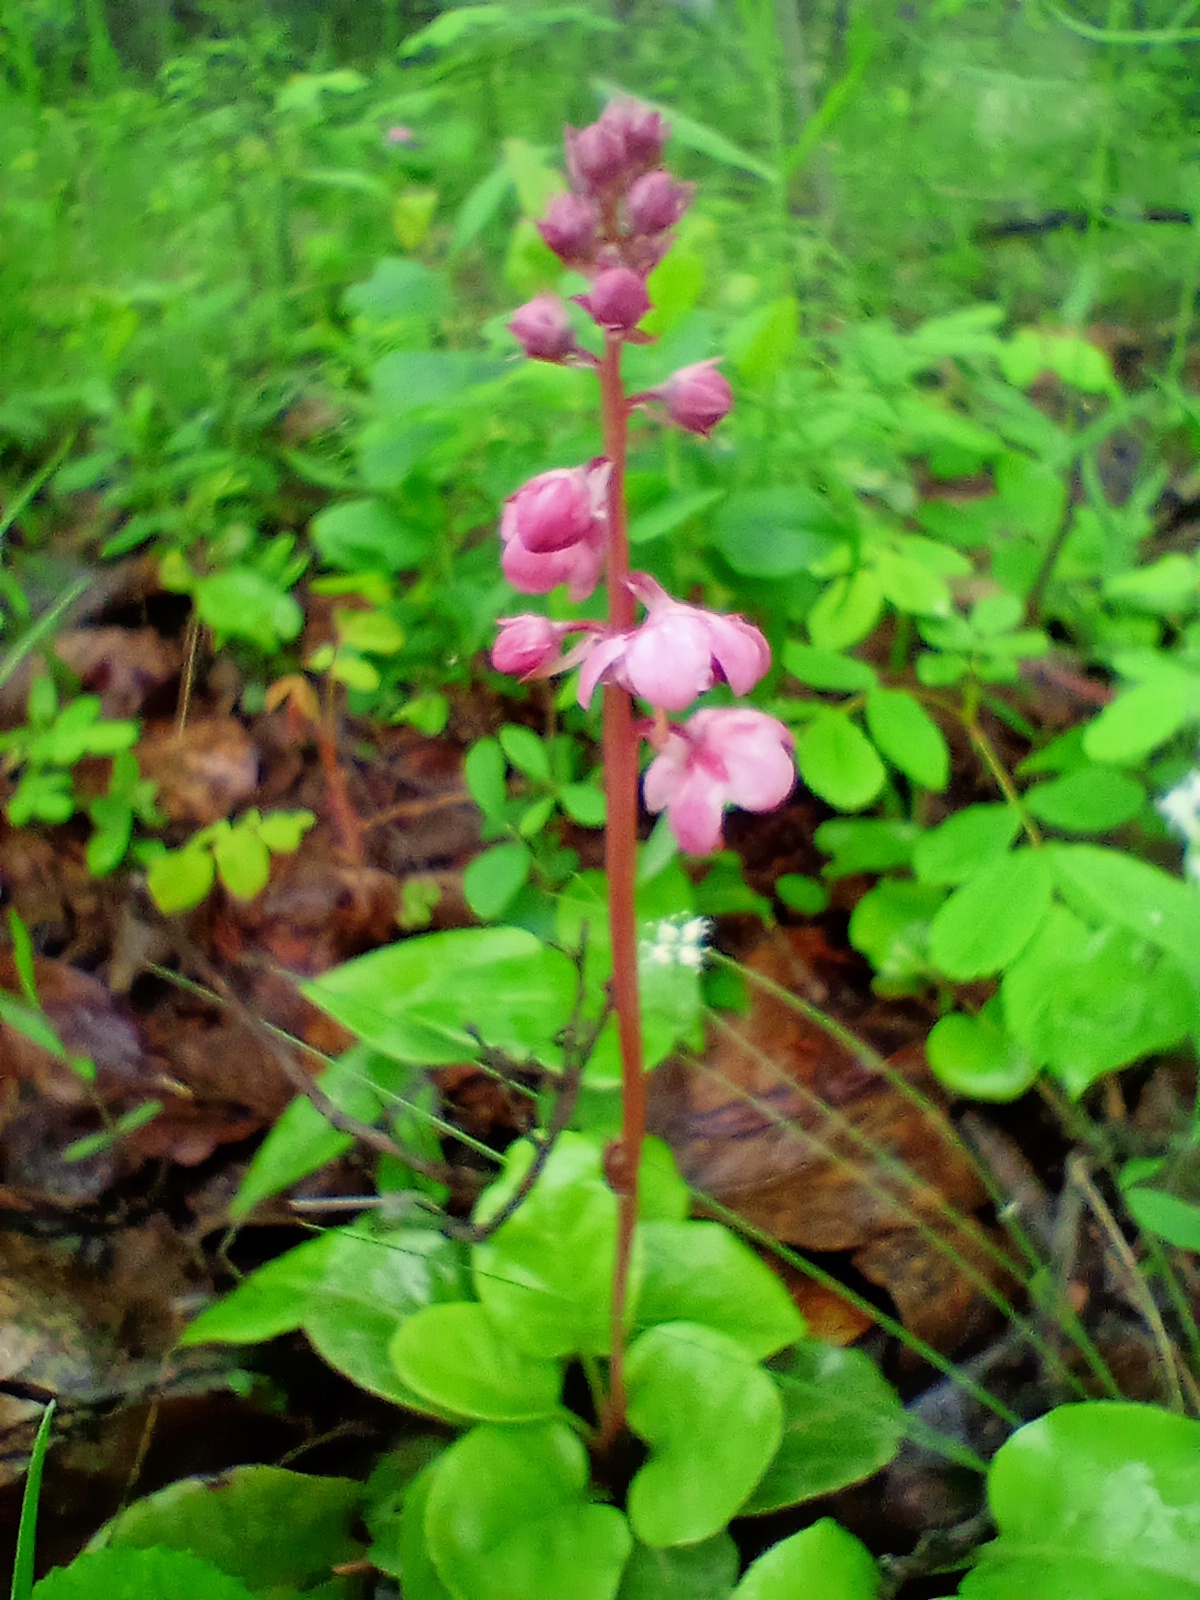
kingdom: Plantae
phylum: Tracheophyta
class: Magnoliopsida
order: Ericales
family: Ericaceae
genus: Pyrola
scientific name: Pyrola asarifolia
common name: Bog wintergreen
